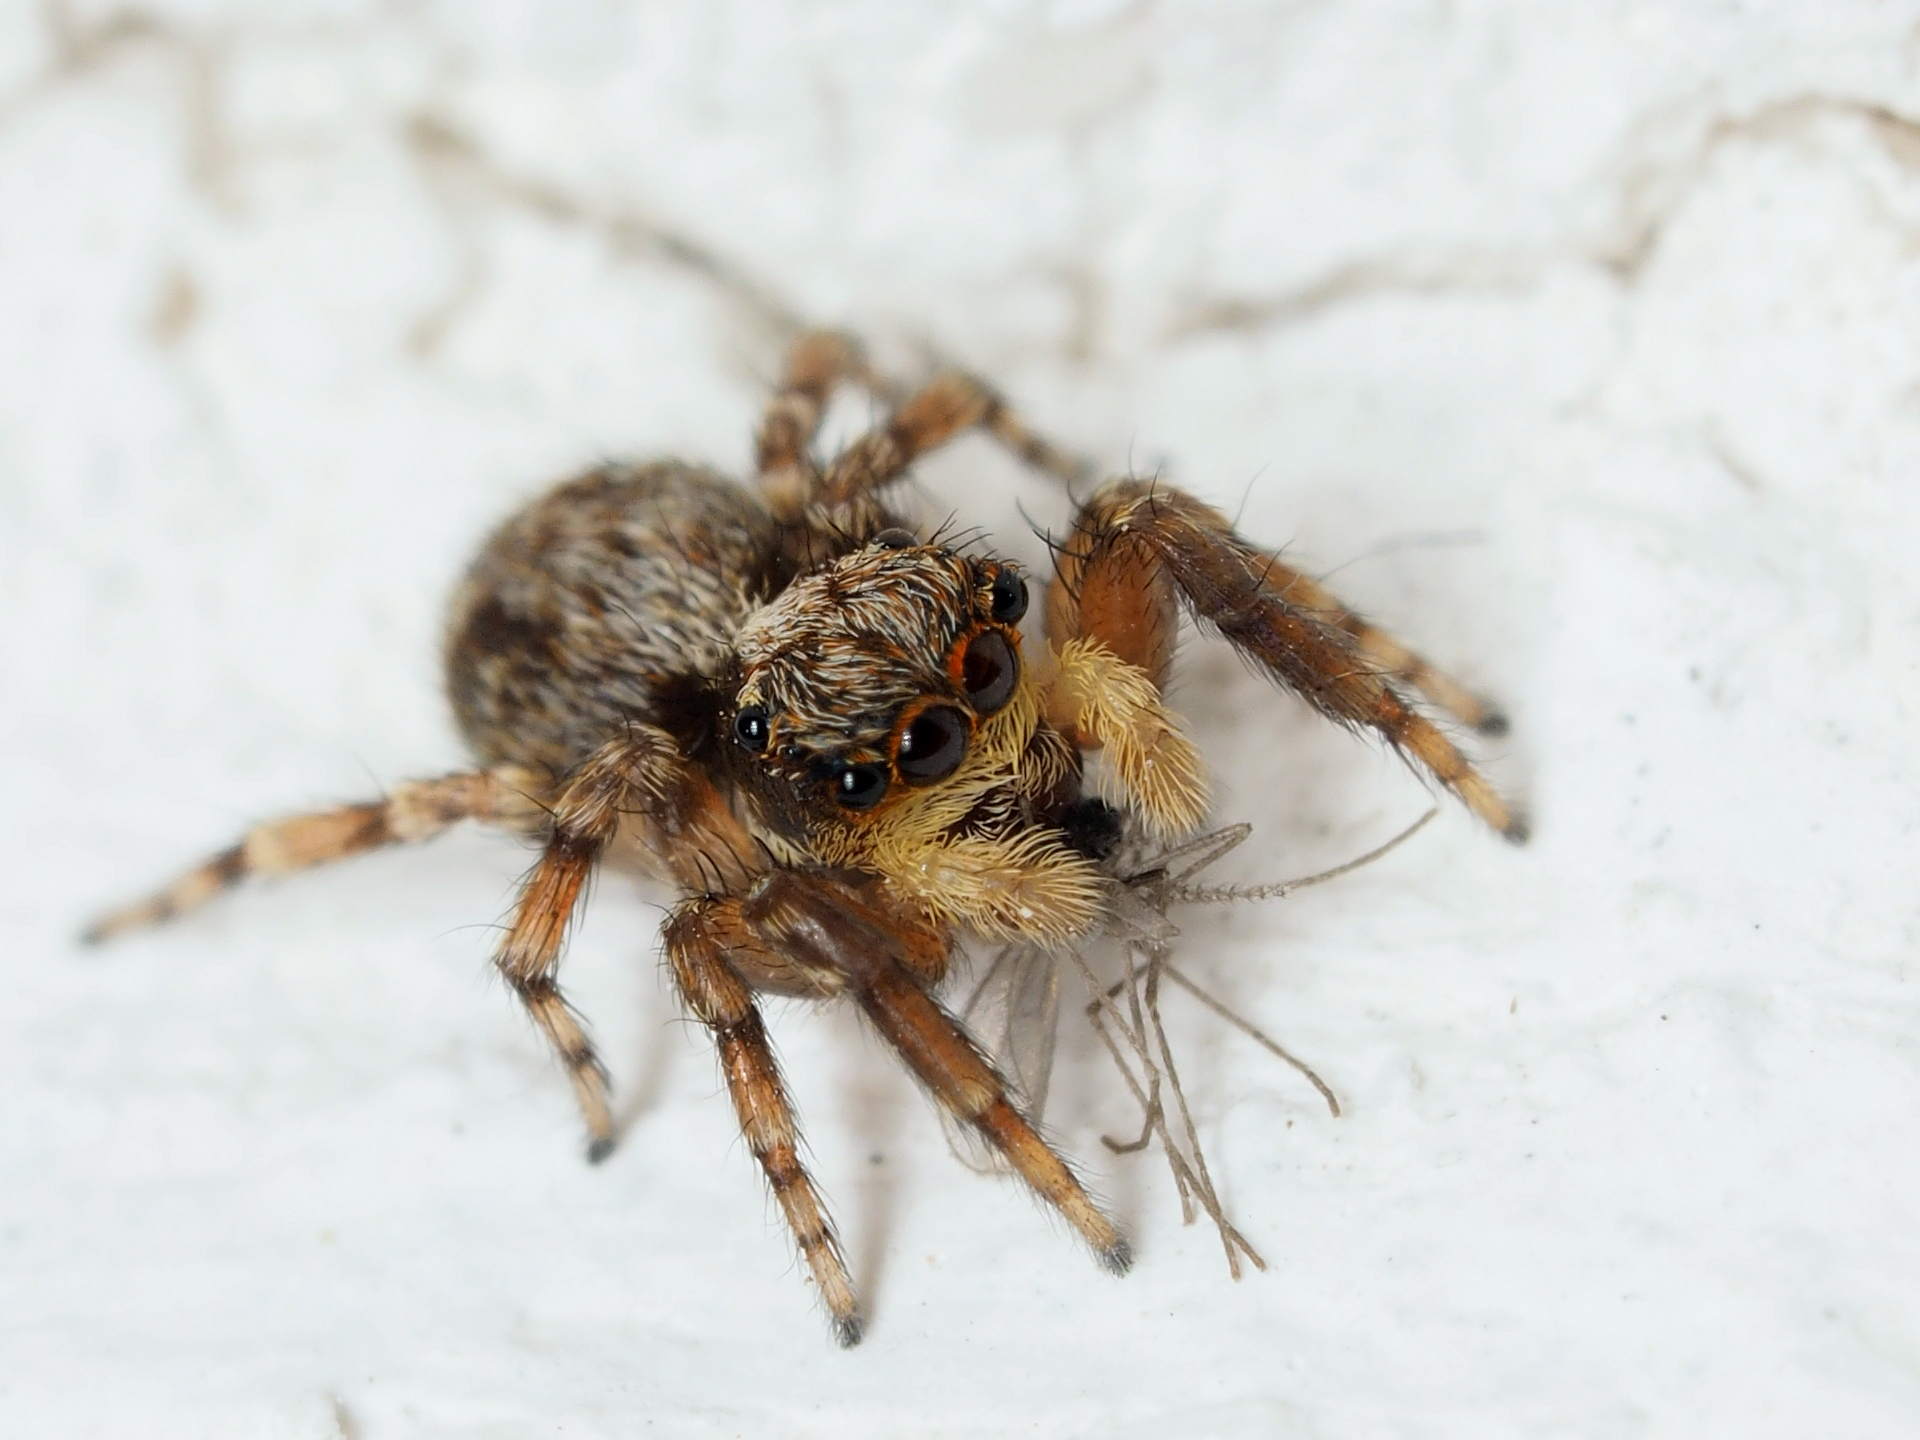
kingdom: Animalia
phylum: Arthropoda
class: Arachnida
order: Araneae
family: Salticidae
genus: Pseudeuophrys
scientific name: Pseudeuophrys vafra
